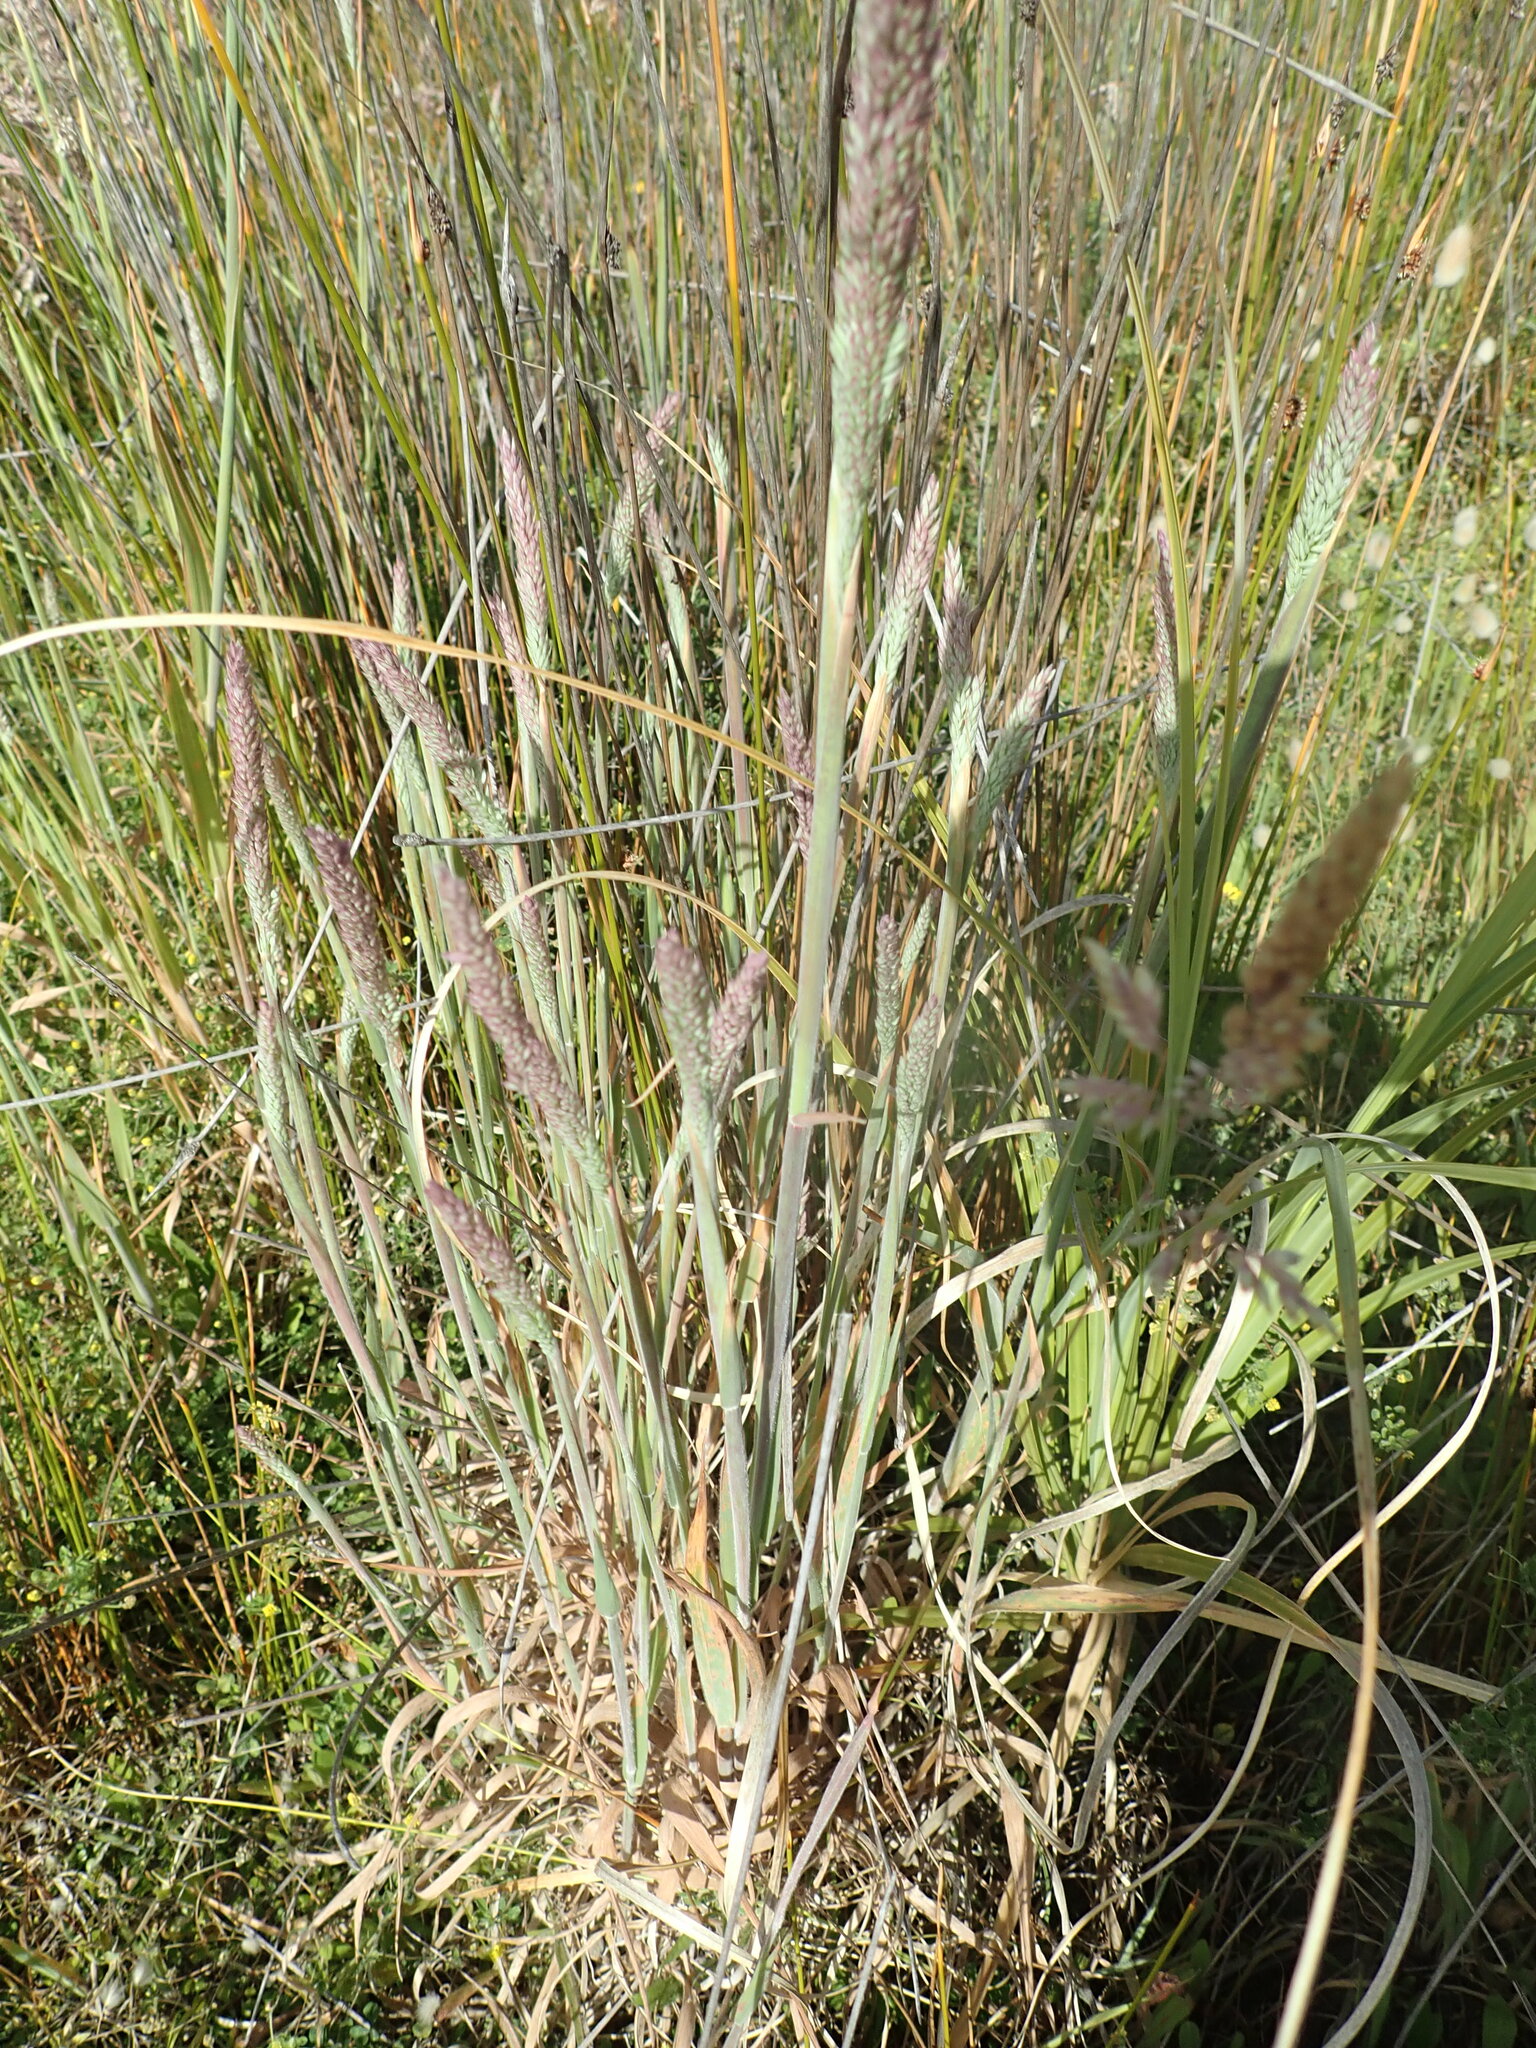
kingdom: Plantae
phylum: Tracheophyta
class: Liliopsida
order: Poales
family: Poaceae
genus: Holcus
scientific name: Holcus lanatus
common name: Yorkshire-fog
